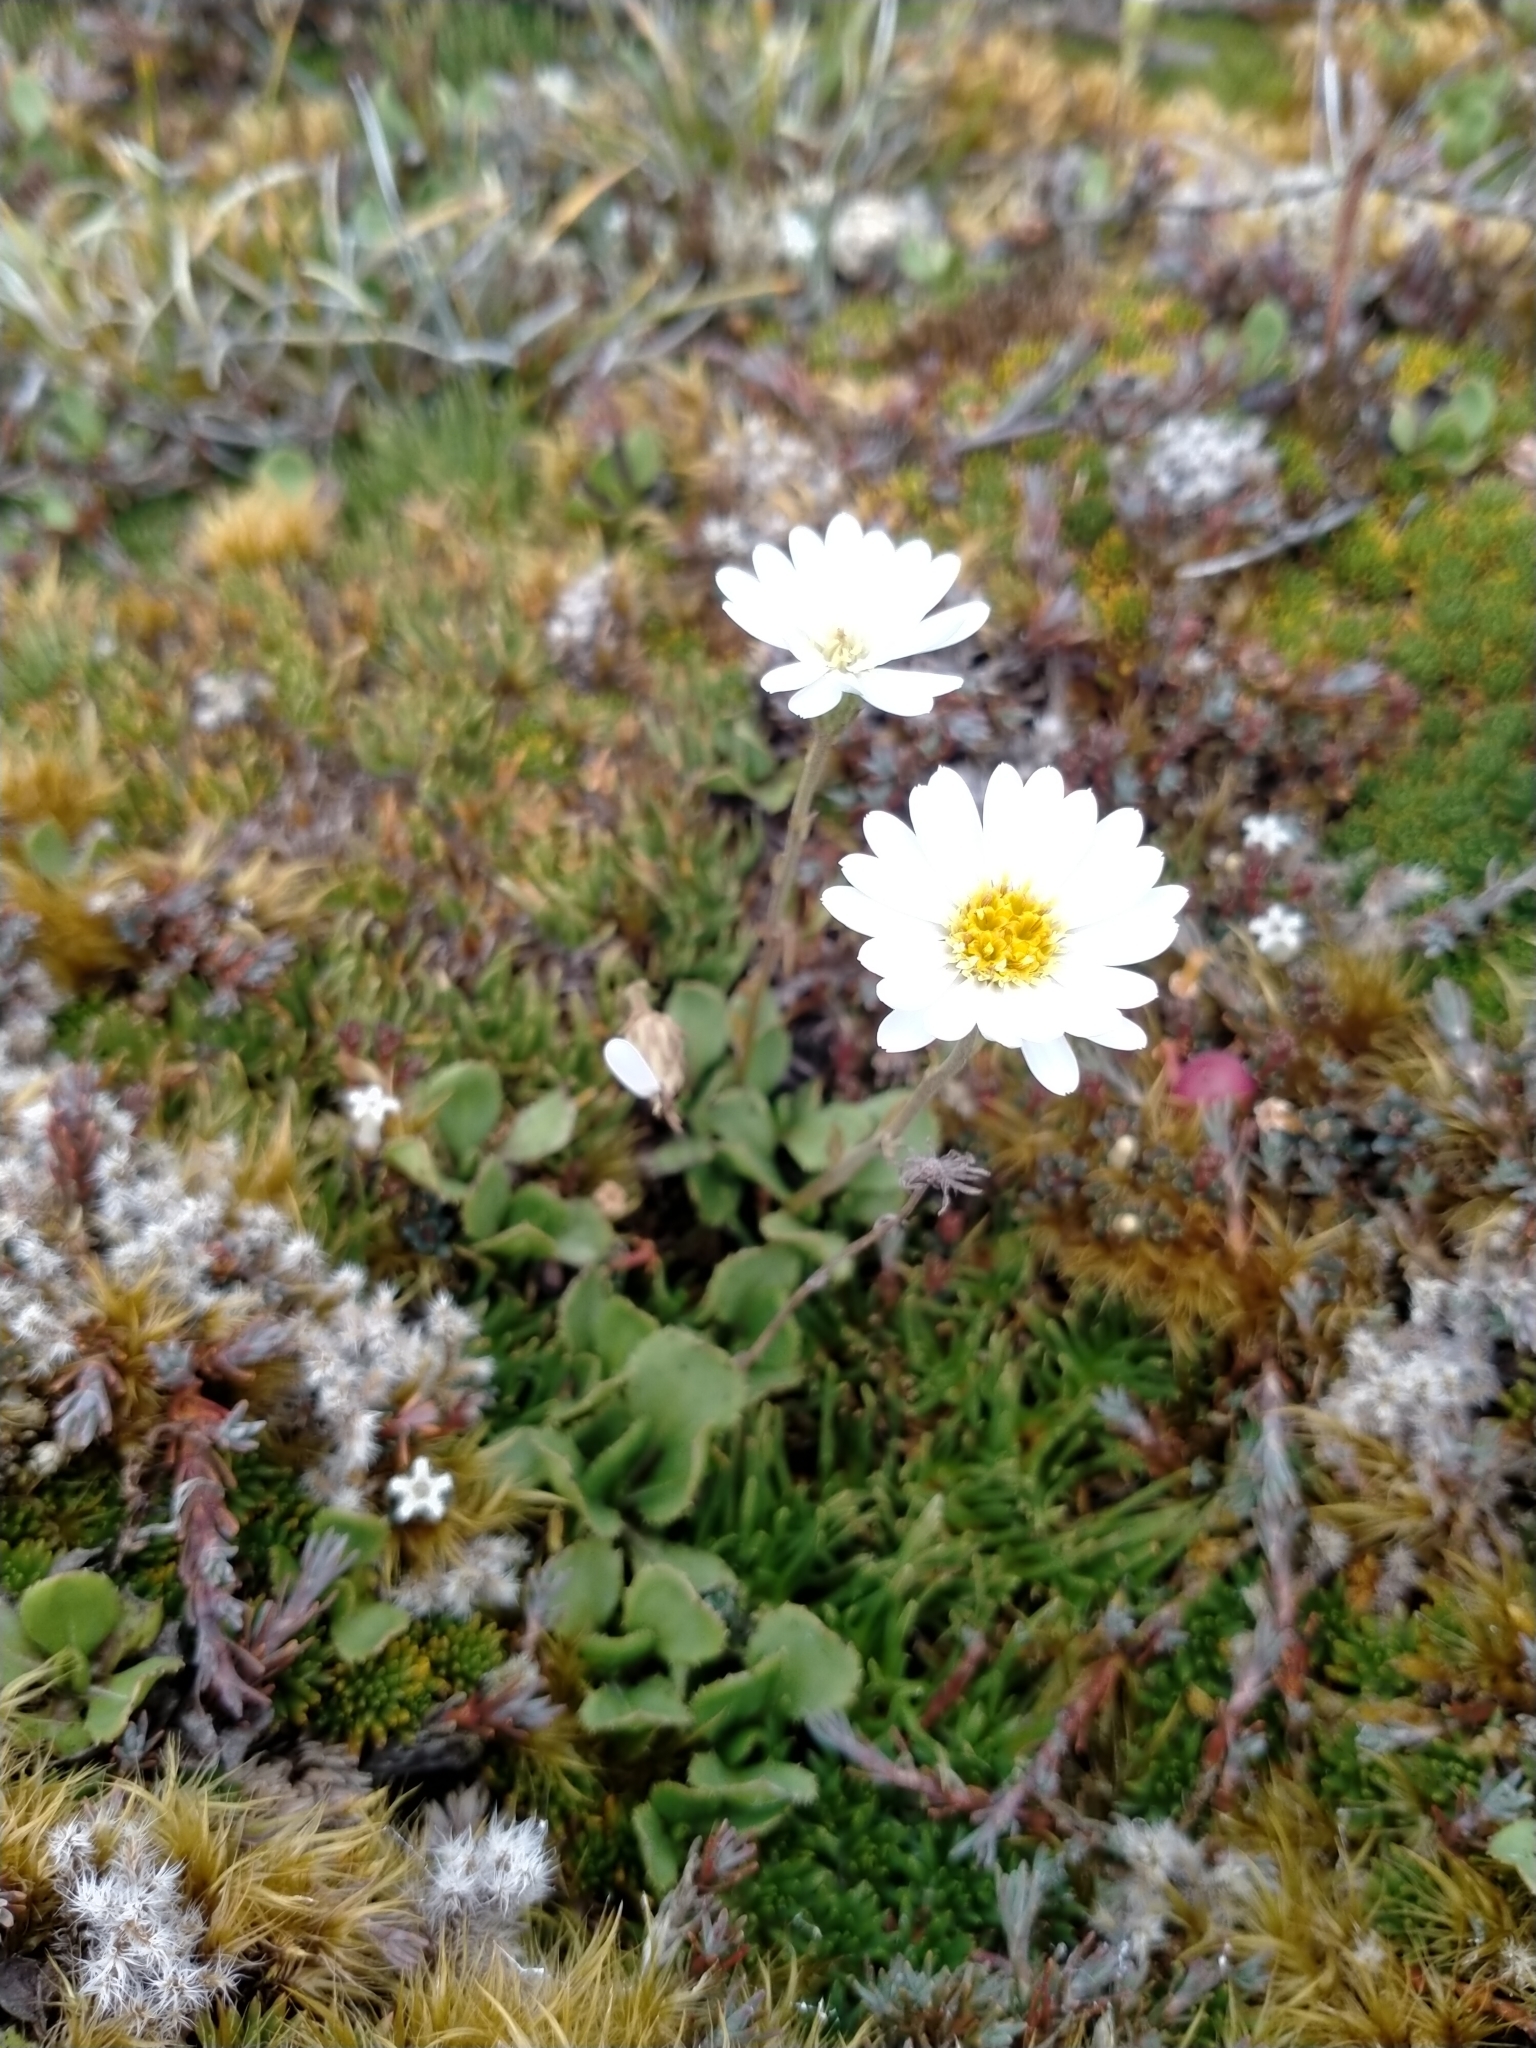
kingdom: Plantae
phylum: Tracheophyta
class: Magnoliopsida
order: Asterales
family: Asteraceae
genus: Celmisia
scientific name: Celmisia glandulosa
